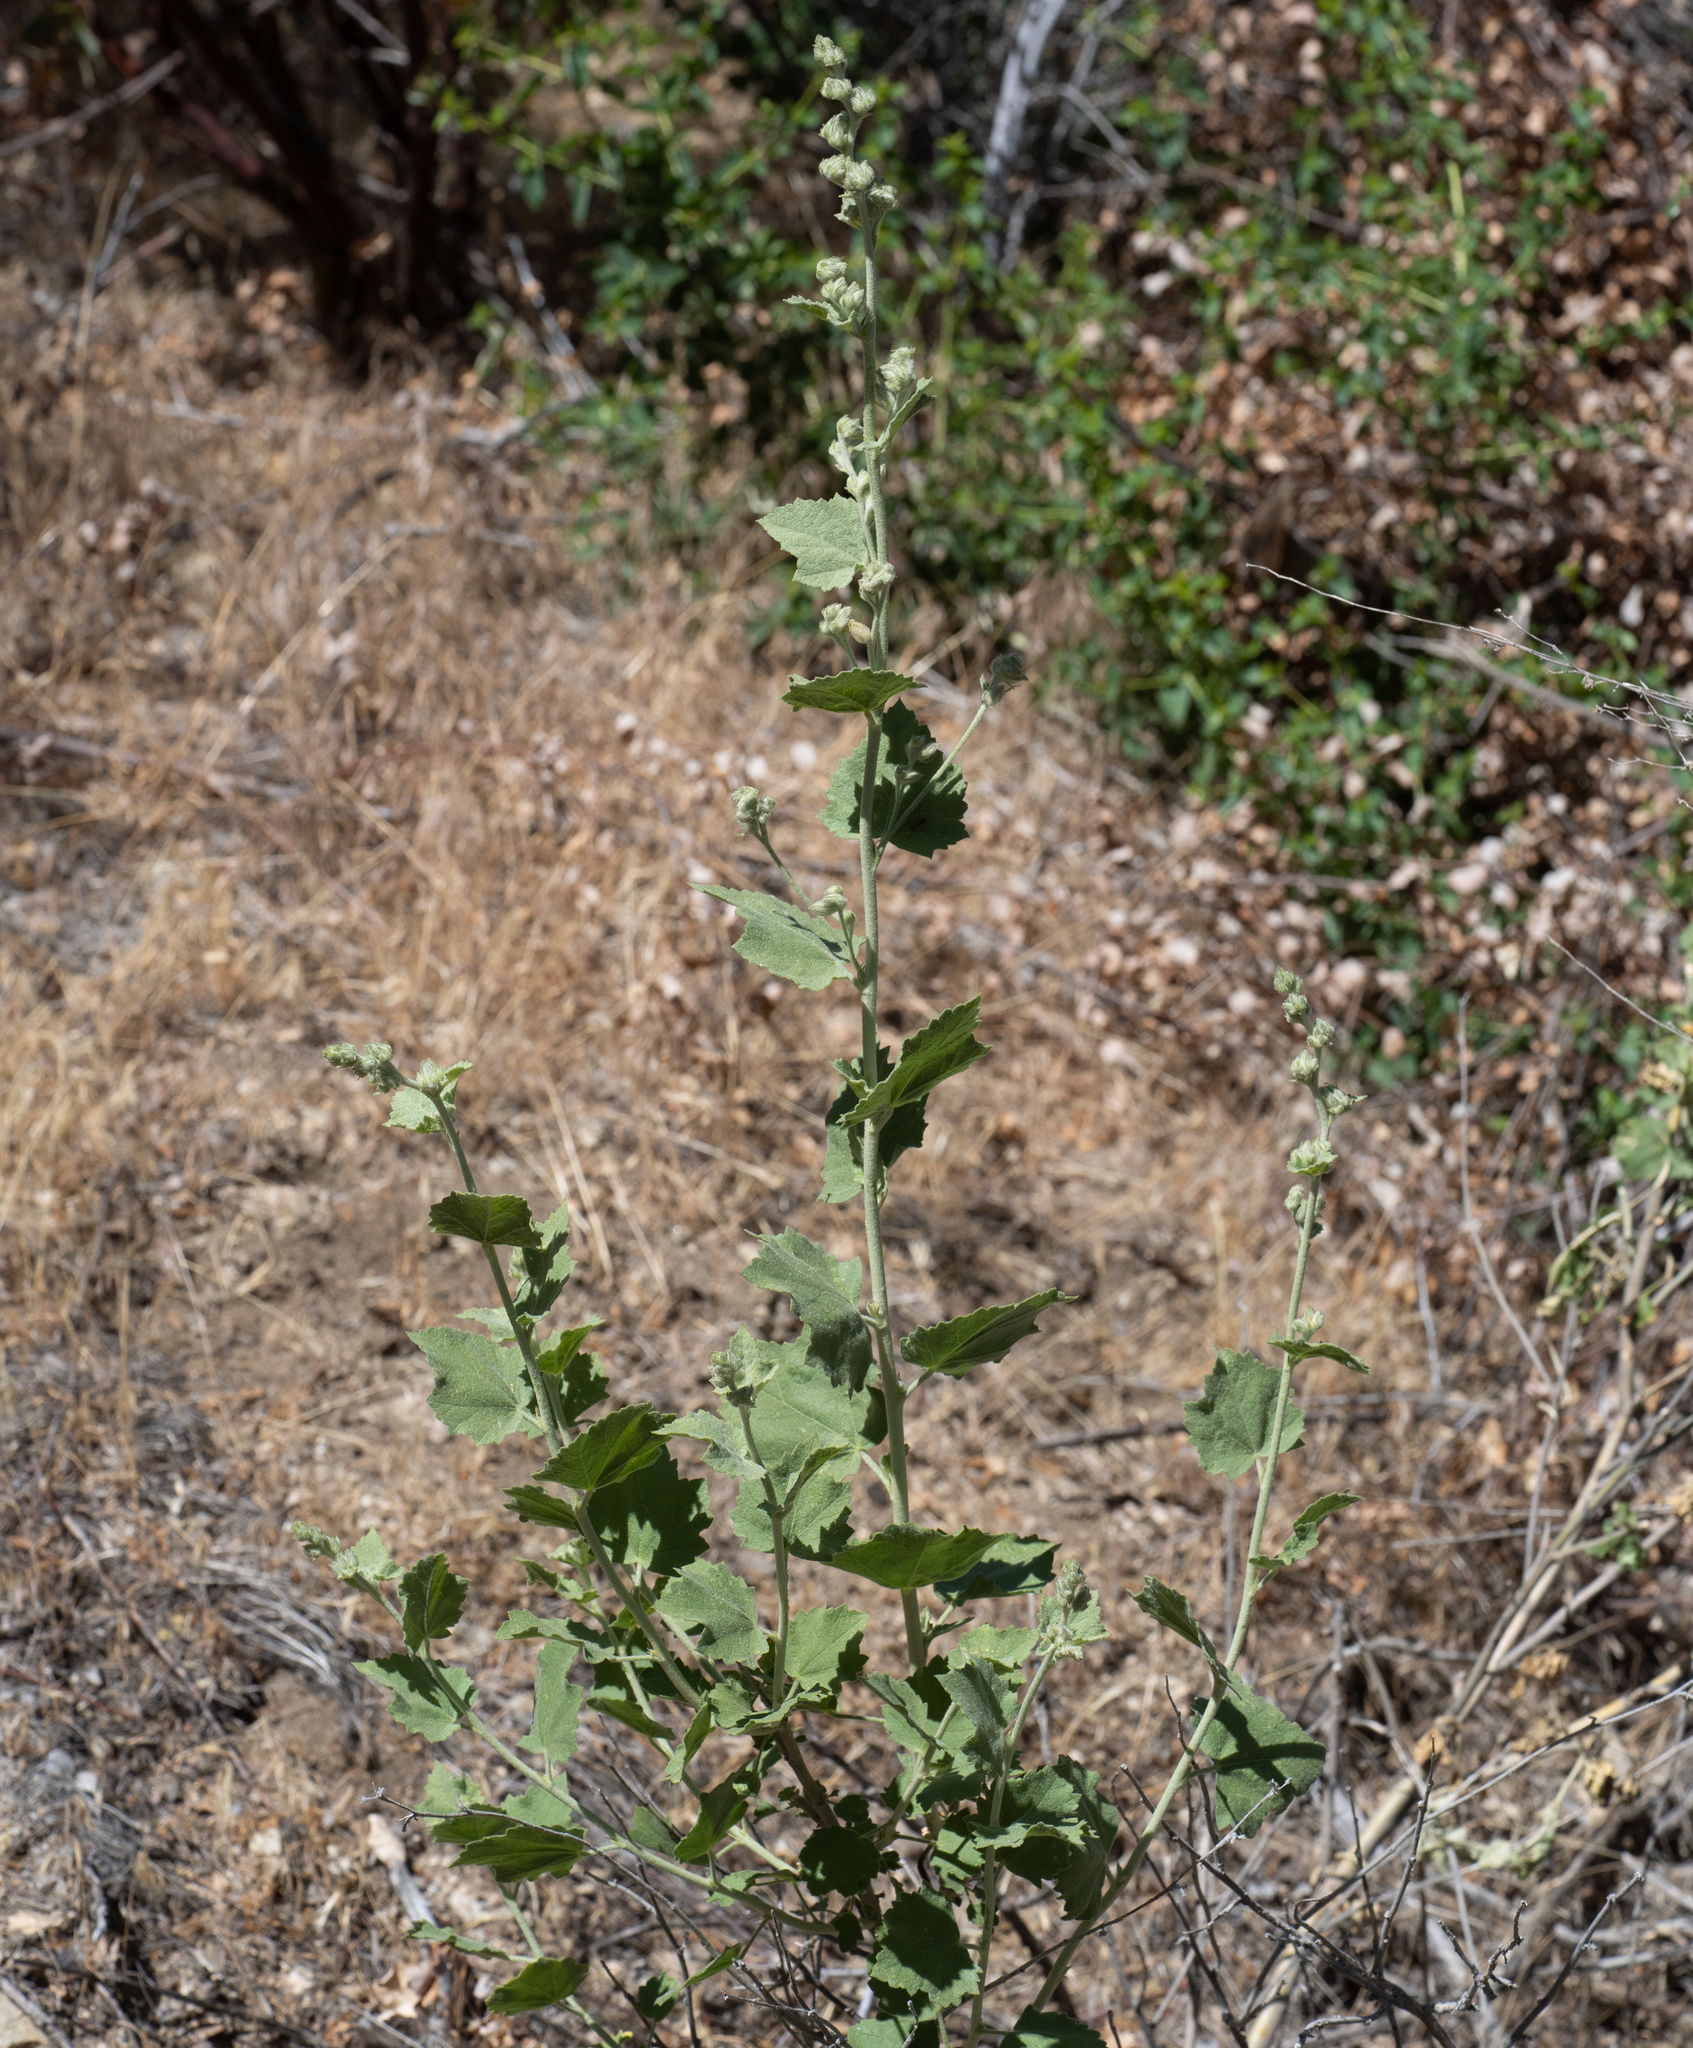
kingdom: Plantae
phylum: Tracheophyta
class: Magnoliopsida
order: Malvales
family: Malvaceae
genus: Malacothamnus
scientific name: Malacothamnus fremontii
